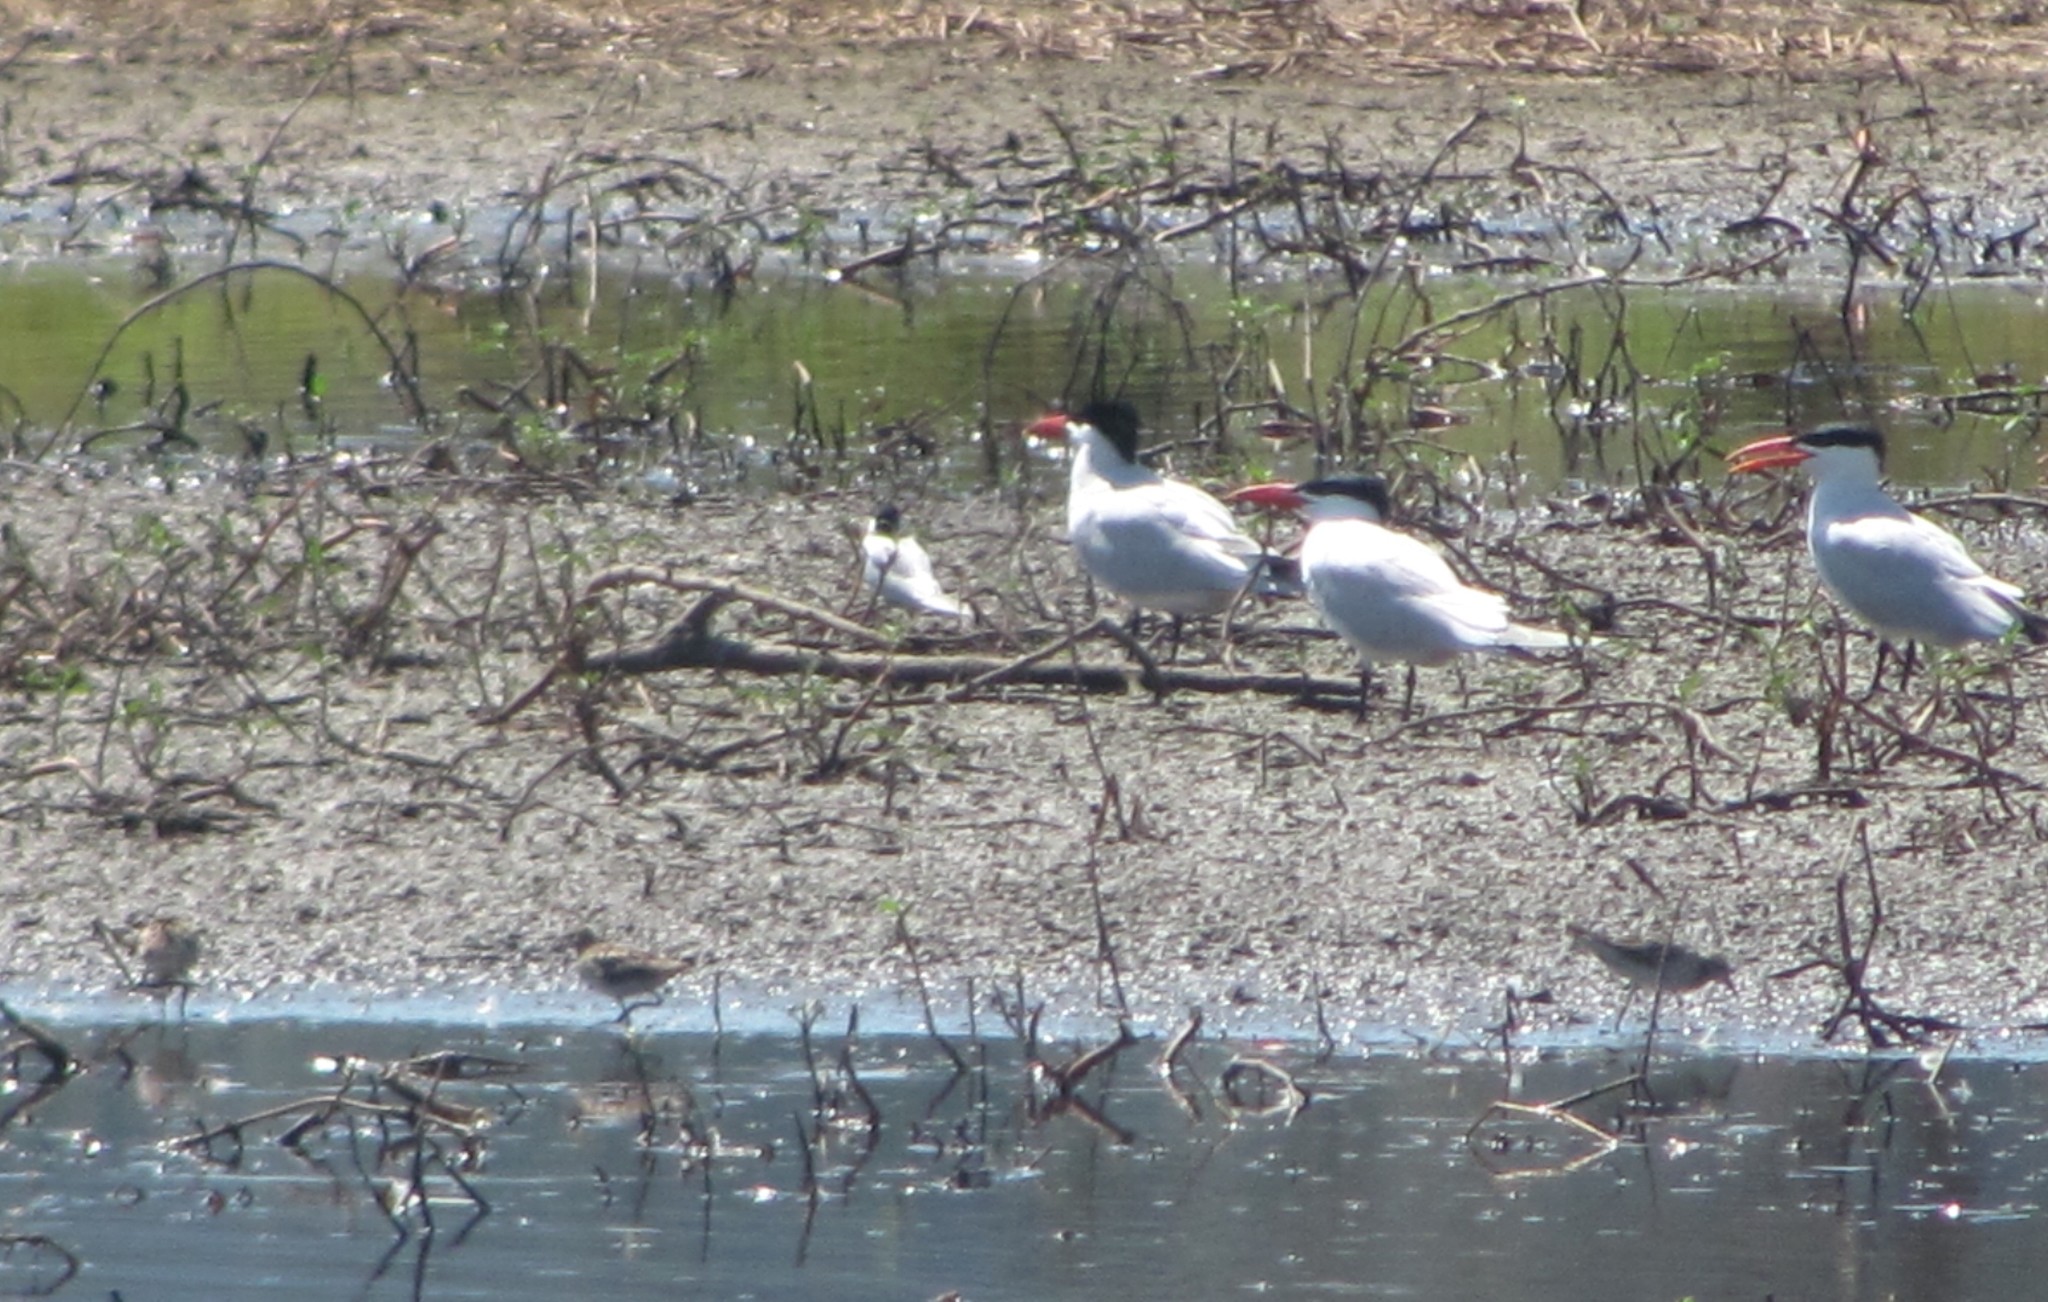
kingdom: Animalia
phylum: Chordata
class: Aves
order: Charadriiformes
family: Laridae
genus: Hydroprogne
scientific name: Hydroprogne caspia
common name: Caspian tern
